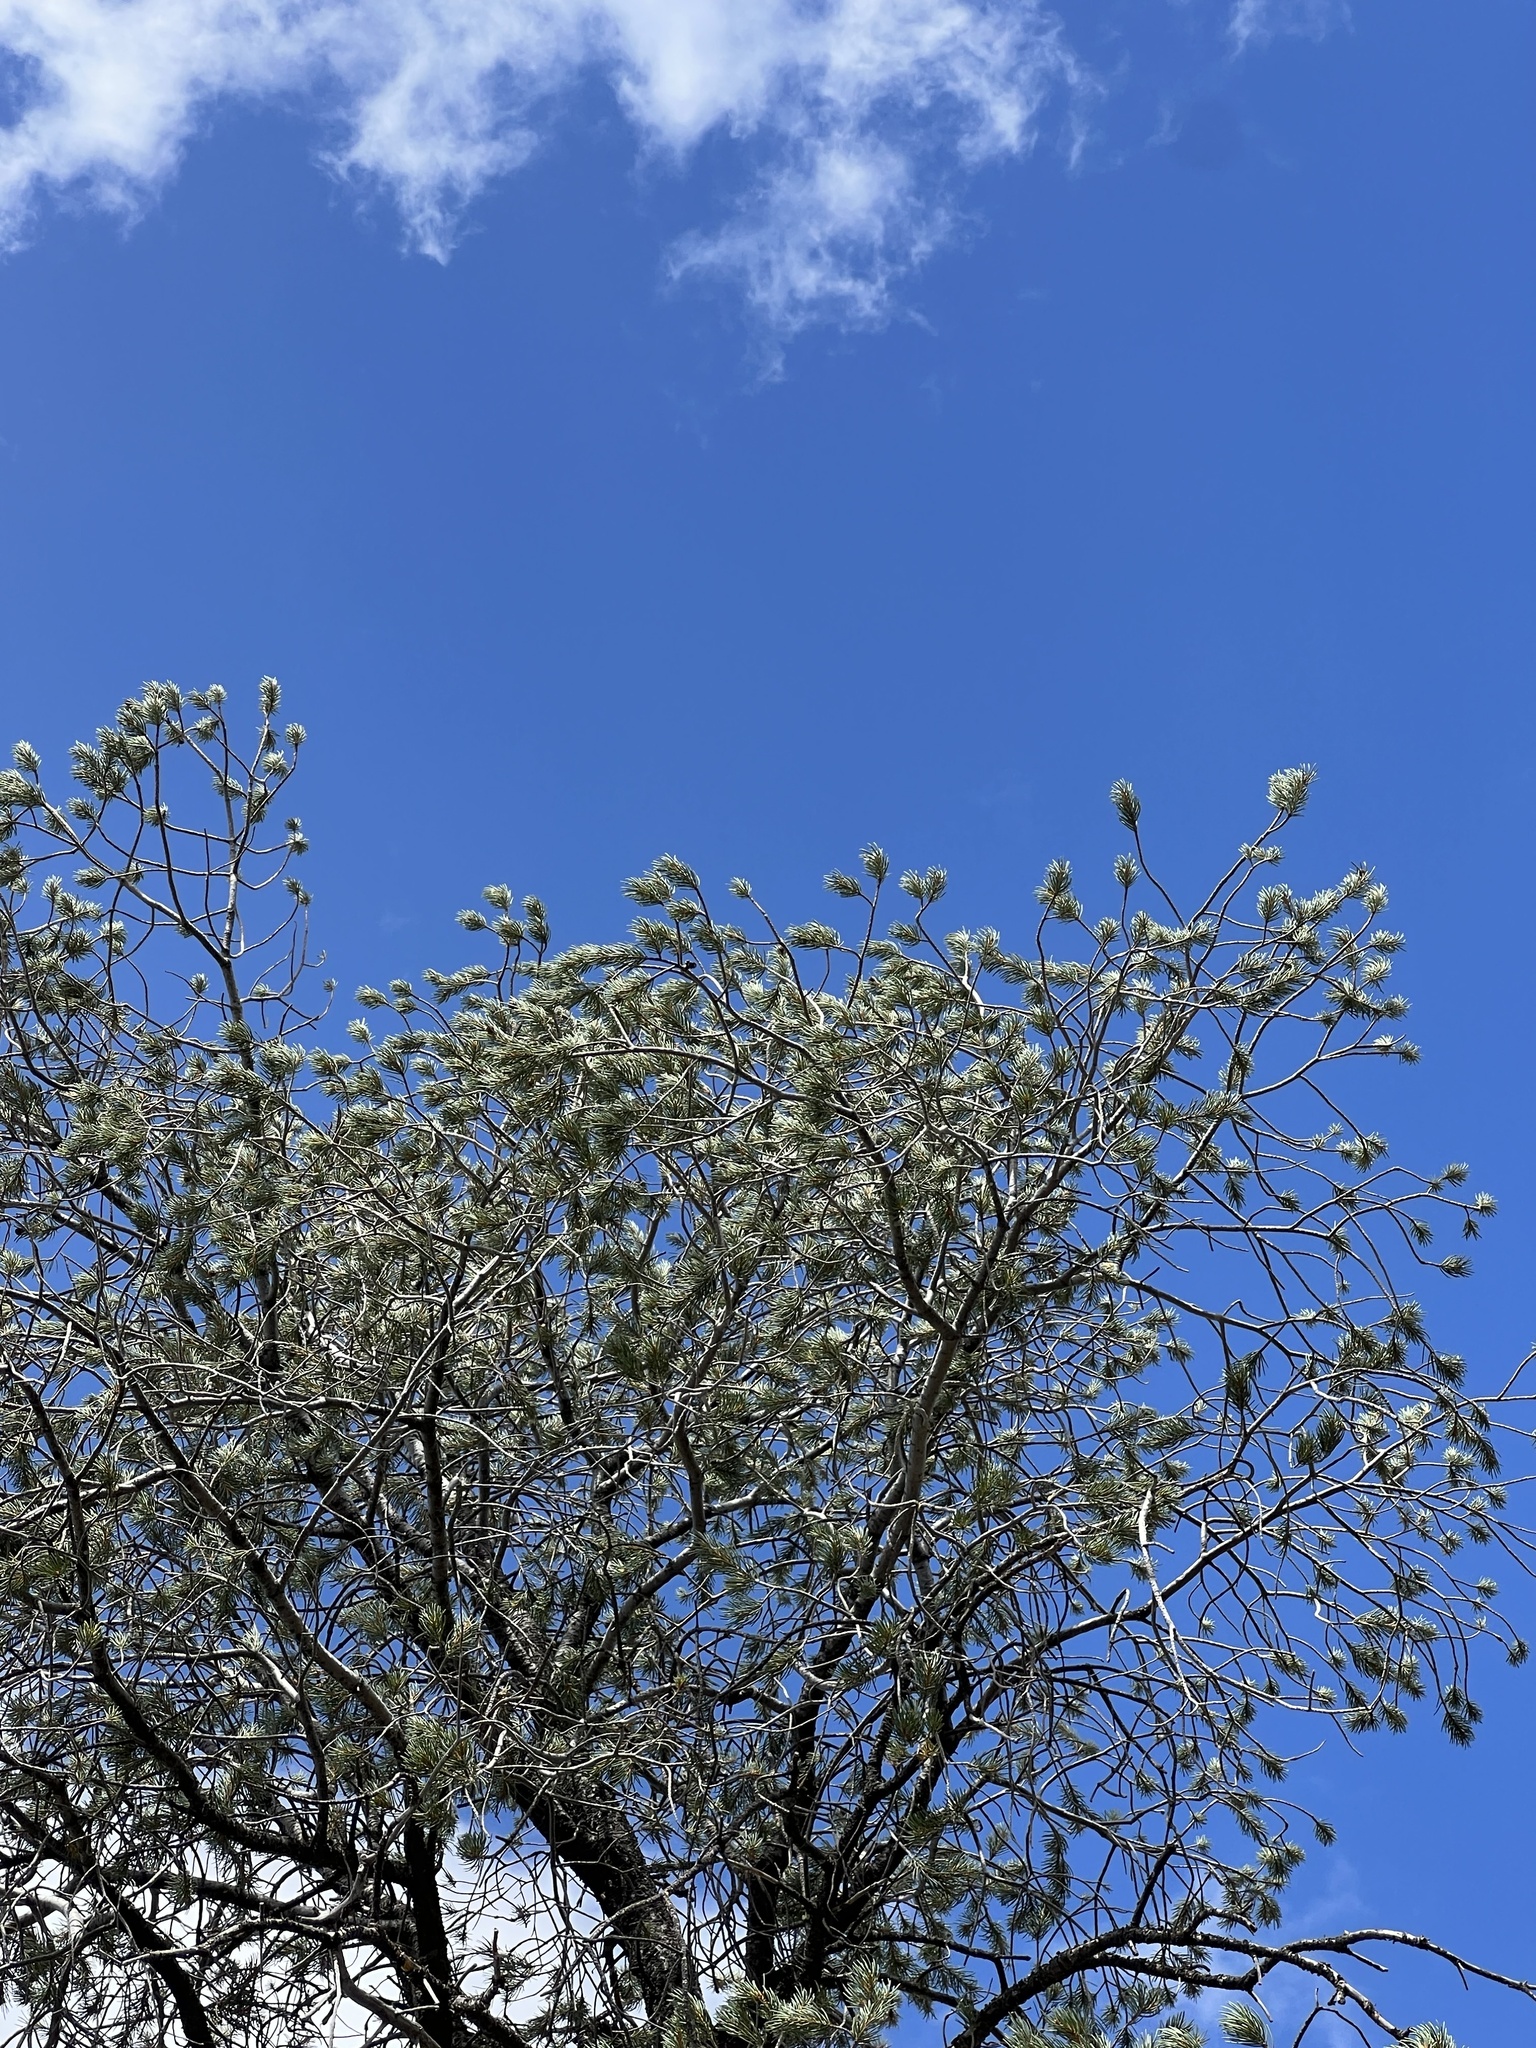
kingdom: Plantae
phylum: Tracheophyta
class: Pinopsida
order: Pinales
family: Pinaceae
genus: Pinus
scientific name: Pinus monophylla
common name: One-leaved nut pine
